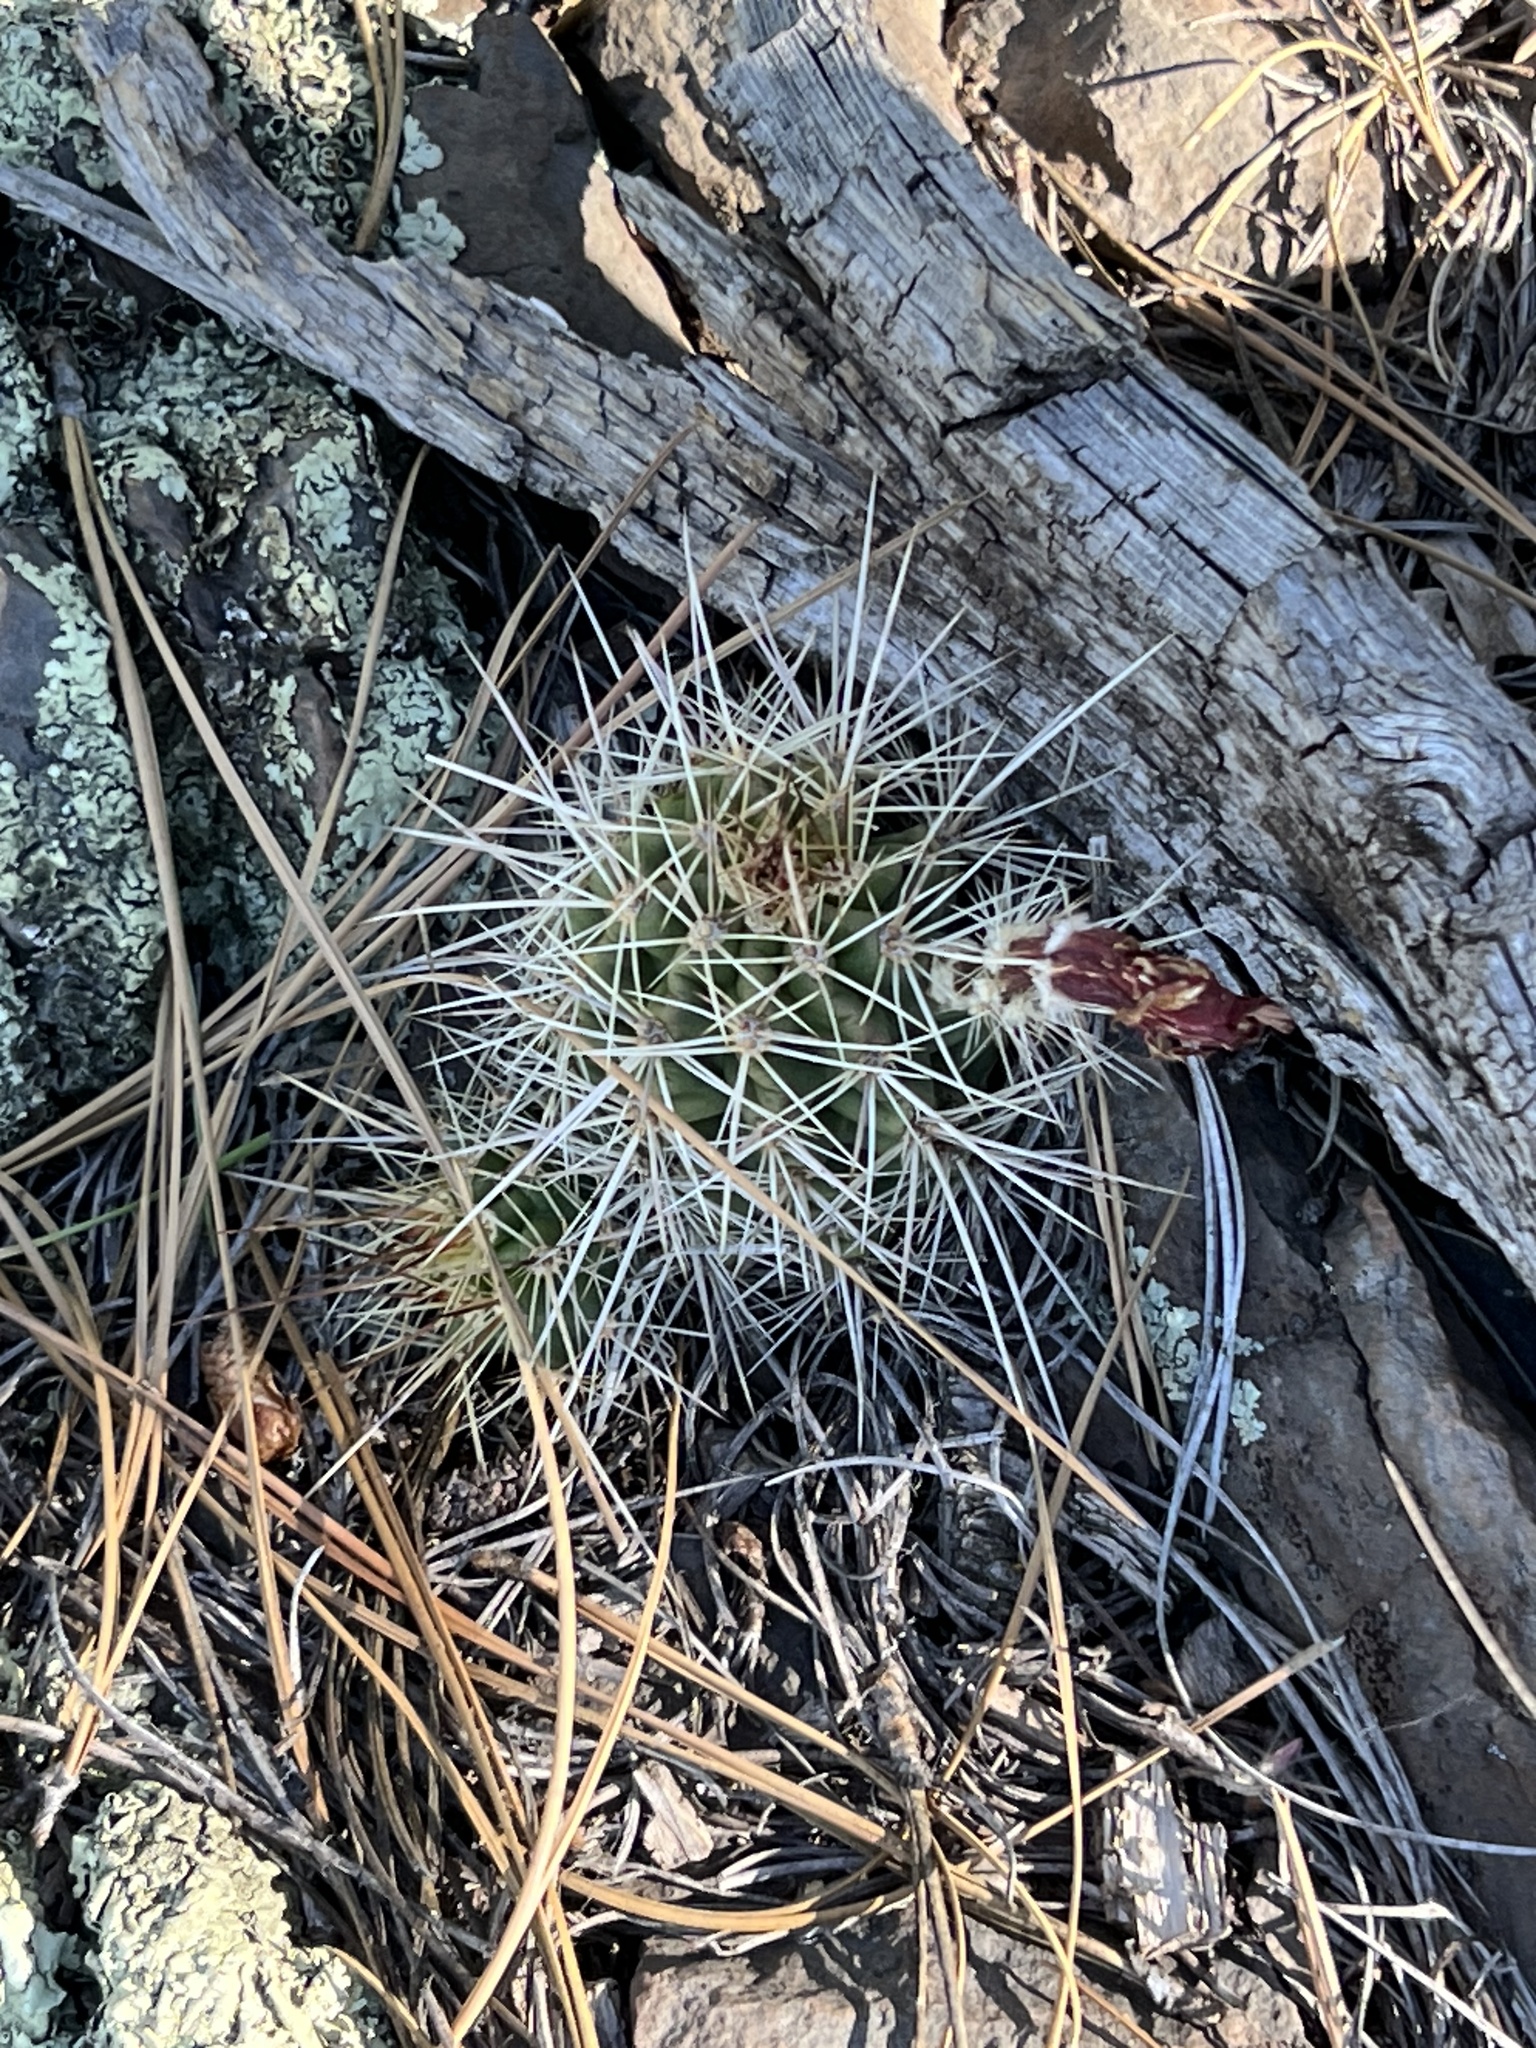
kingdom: Plantae
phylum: Tracheophyta
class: Magnoliopsida
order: Caryophyllales
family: Cactaceae
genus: Echinocereus
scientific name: Echinocereus bakeri
